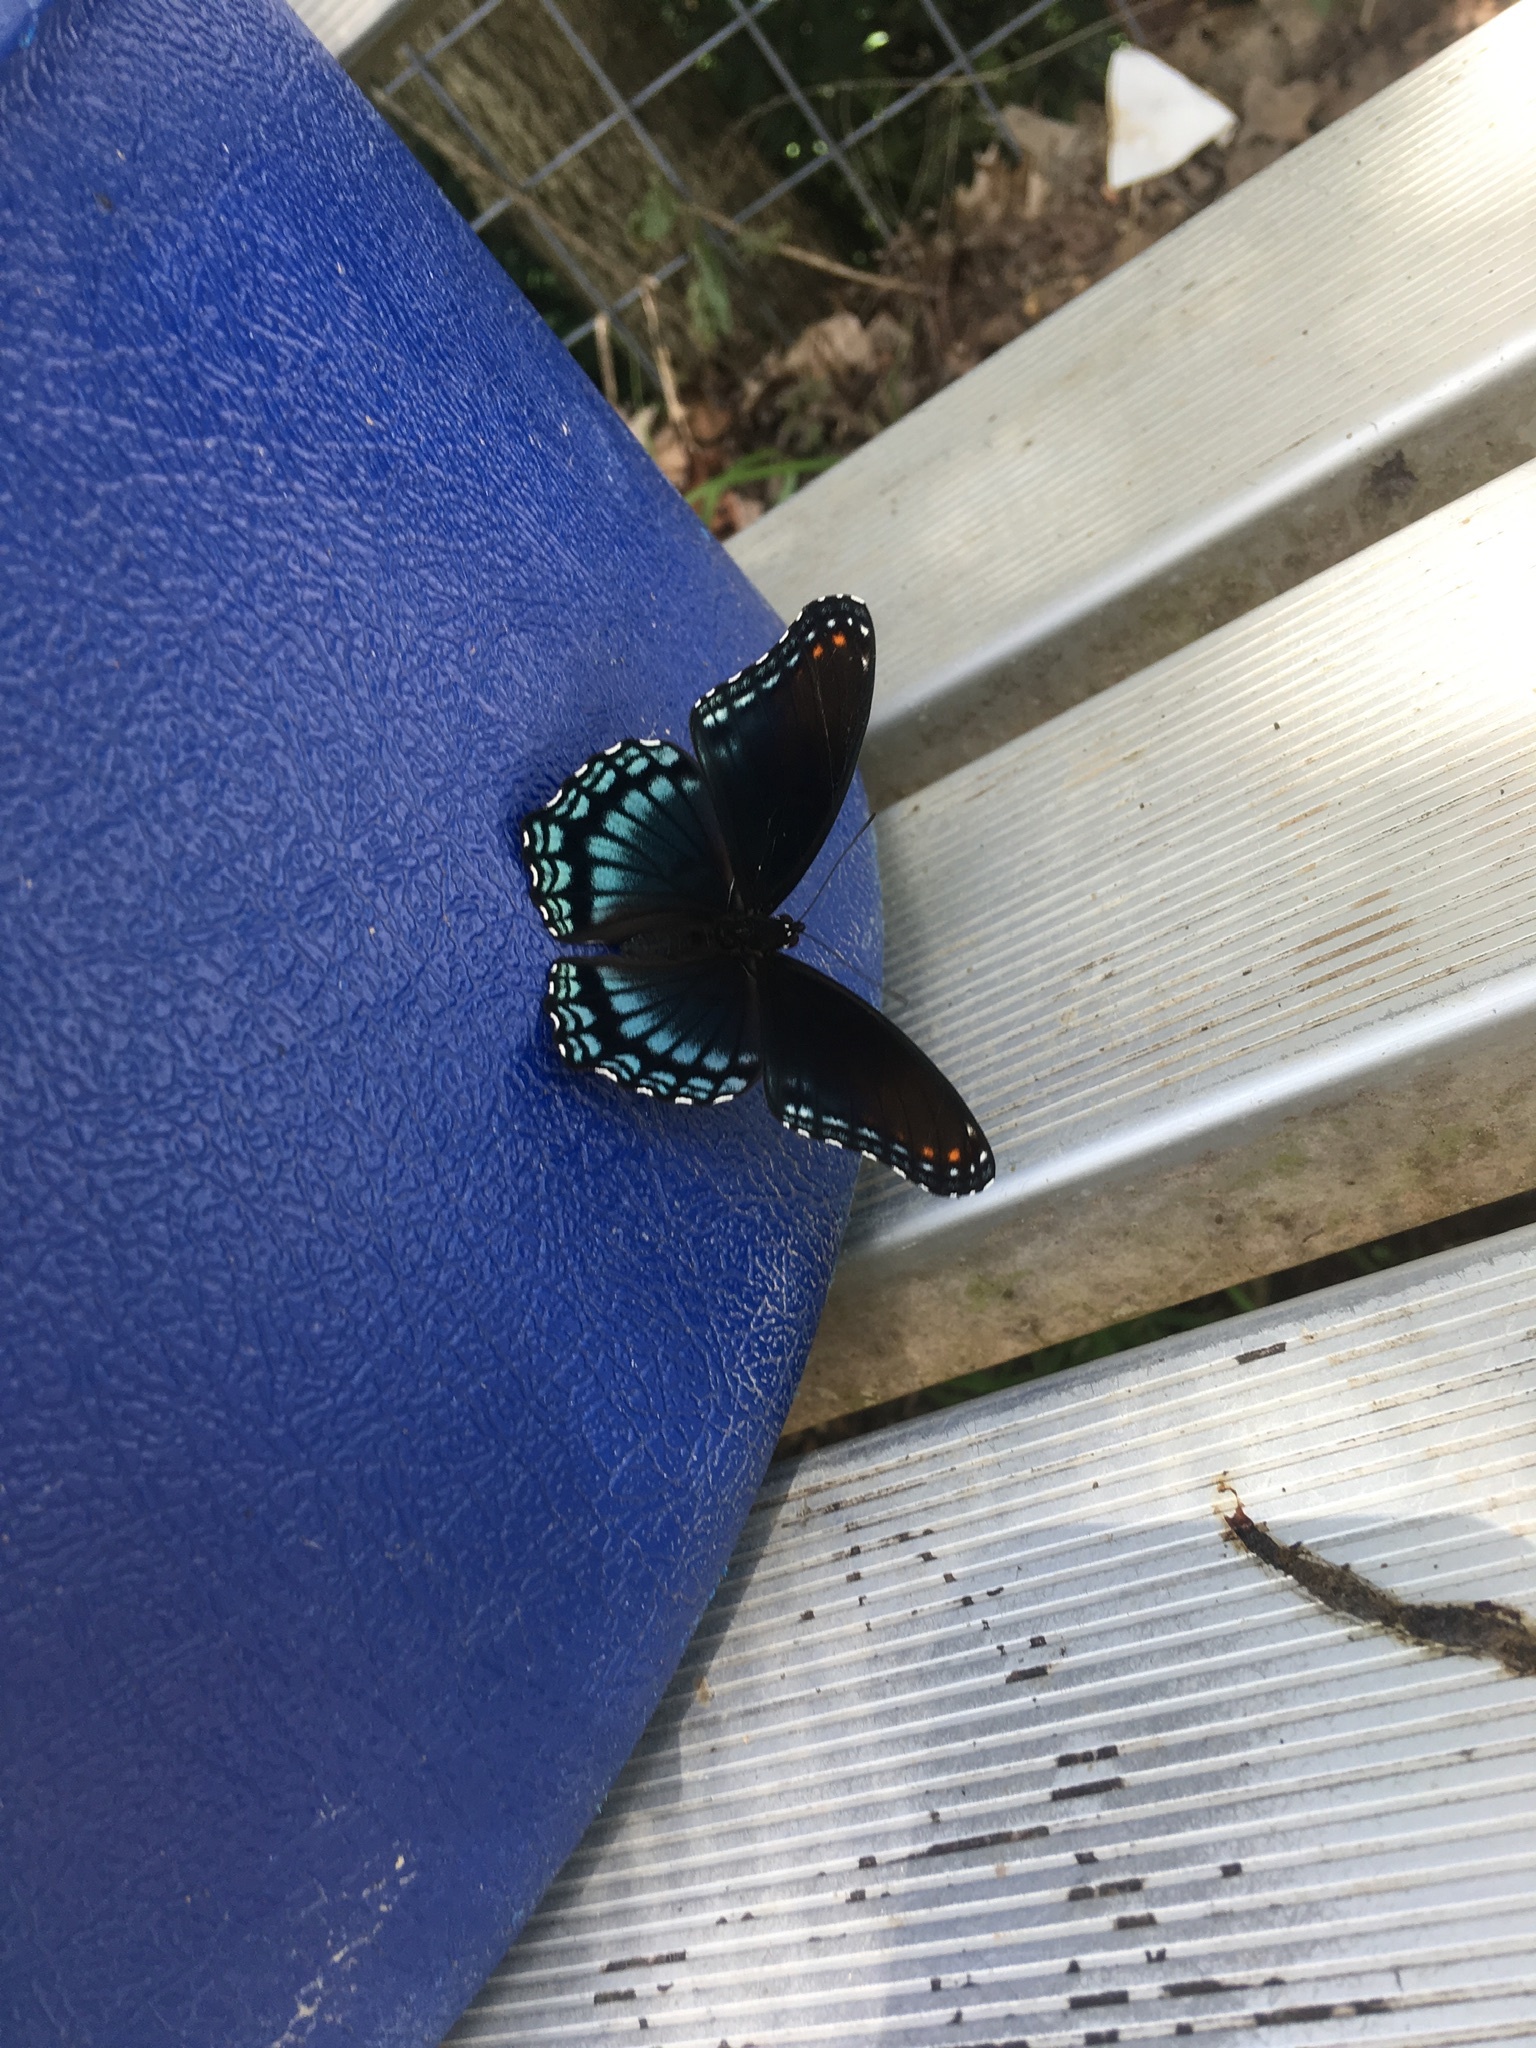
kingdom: Animalia
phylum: Arthropoda
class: Insecta
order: Lepidoptera
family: Nymphalidae
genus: Limenitis
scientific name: Limenitis astyanax
